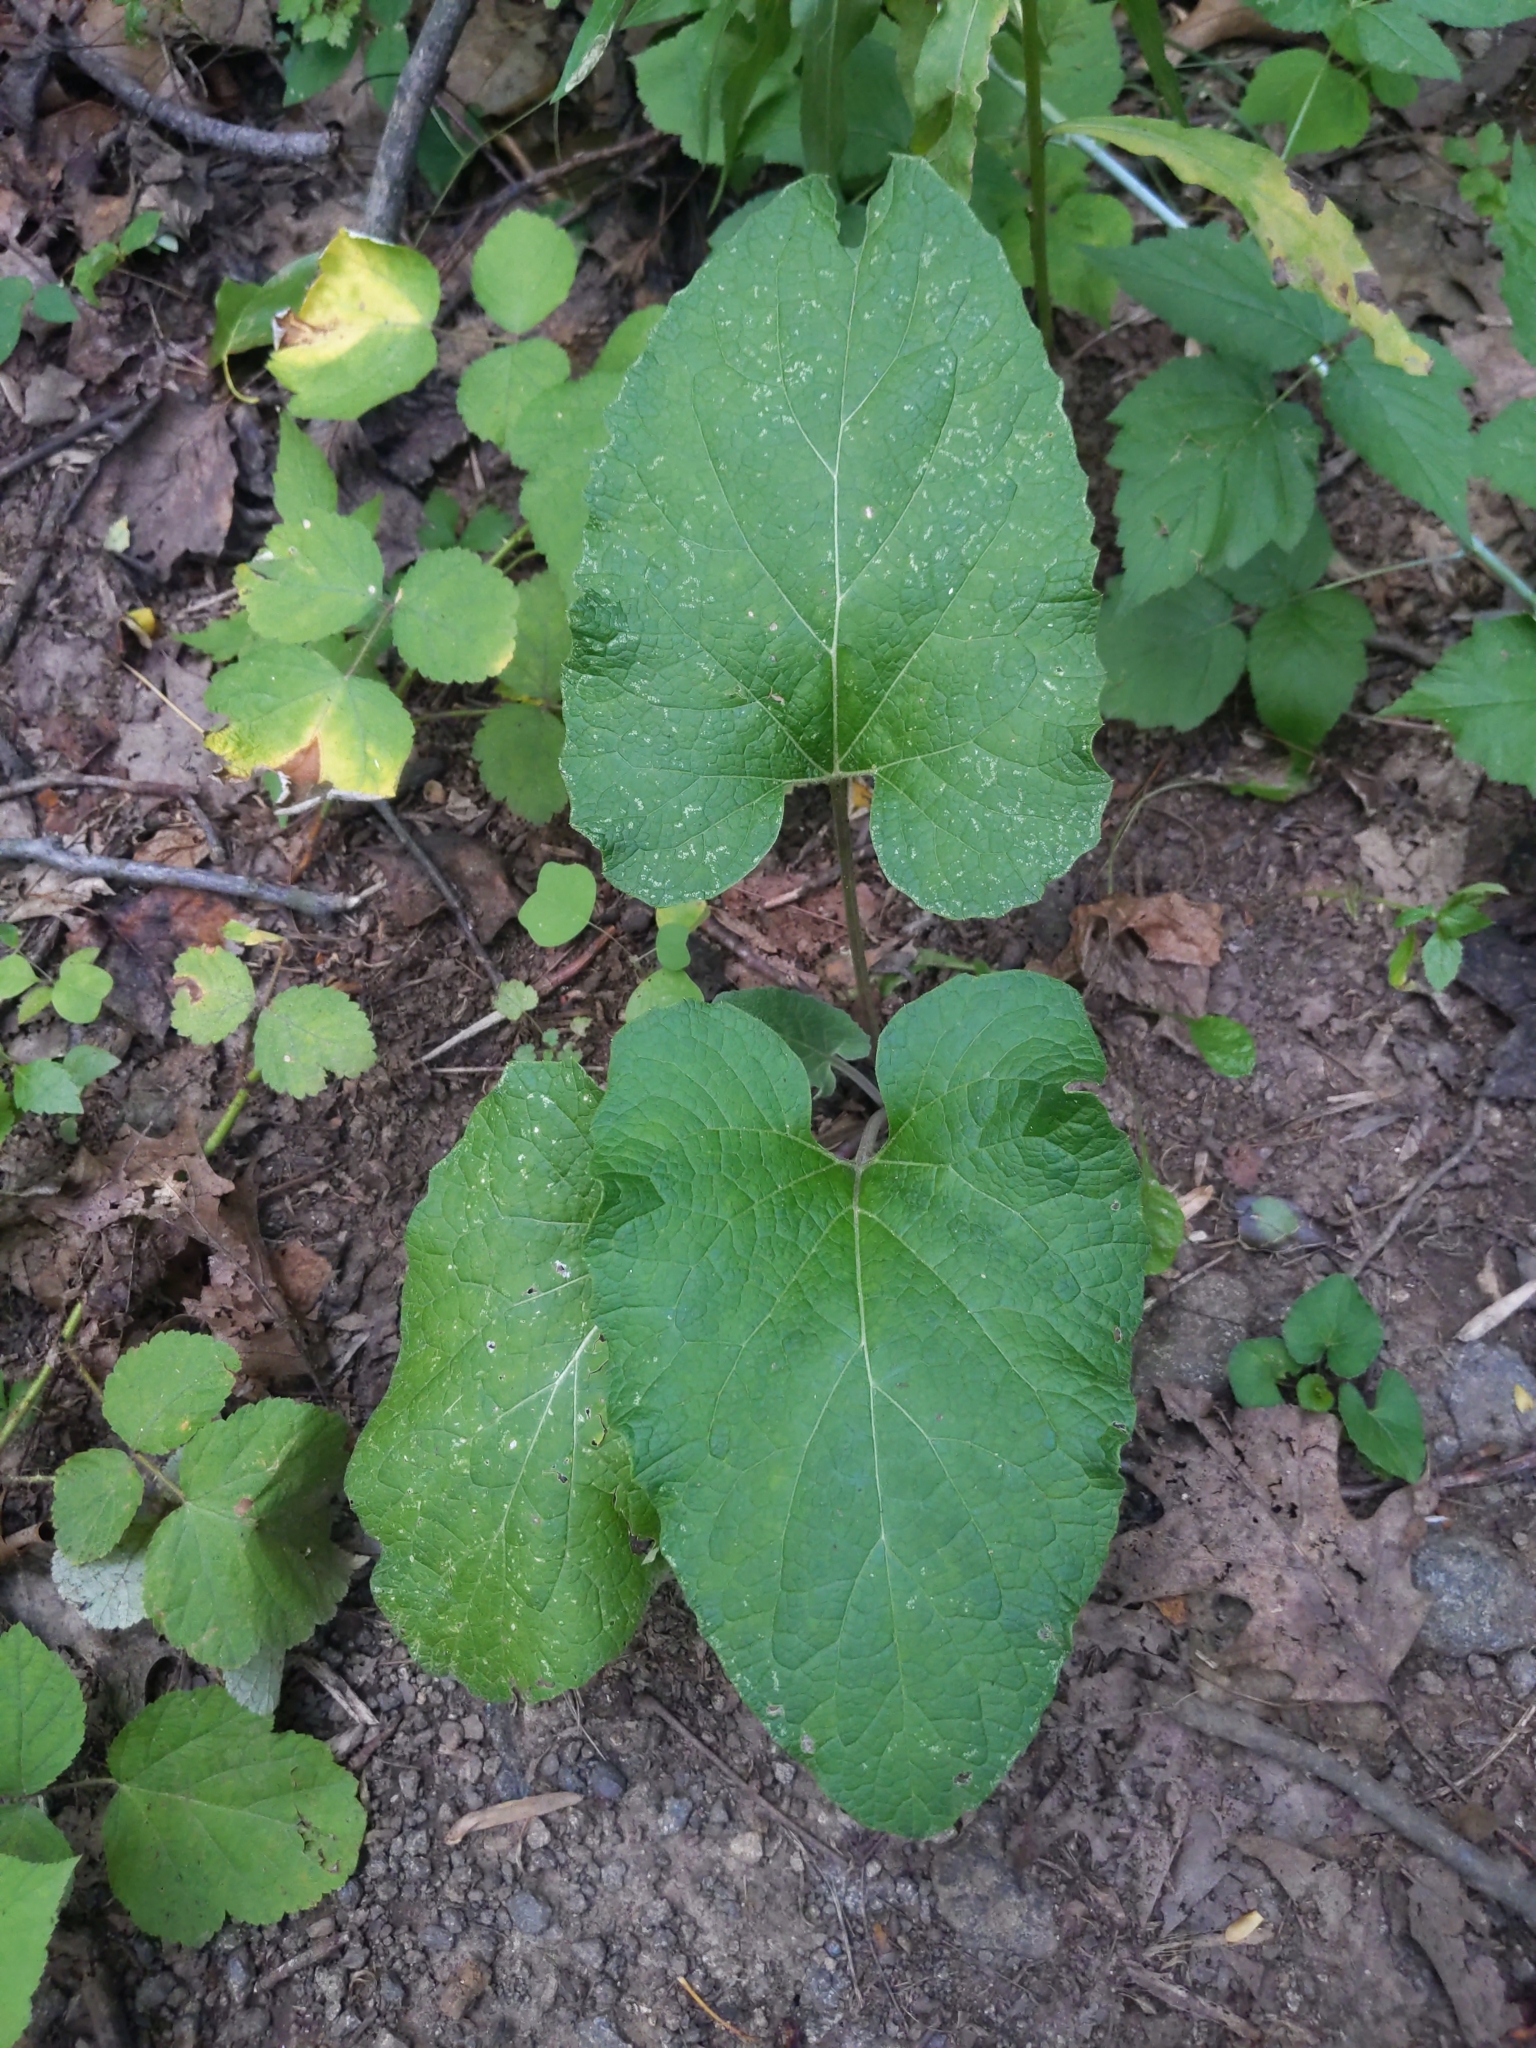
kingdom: Plantae
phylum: Tracheophyta
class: Magnoliopsida
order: Asterales
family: Asteraceae
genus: Arctium
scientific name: Arctium
